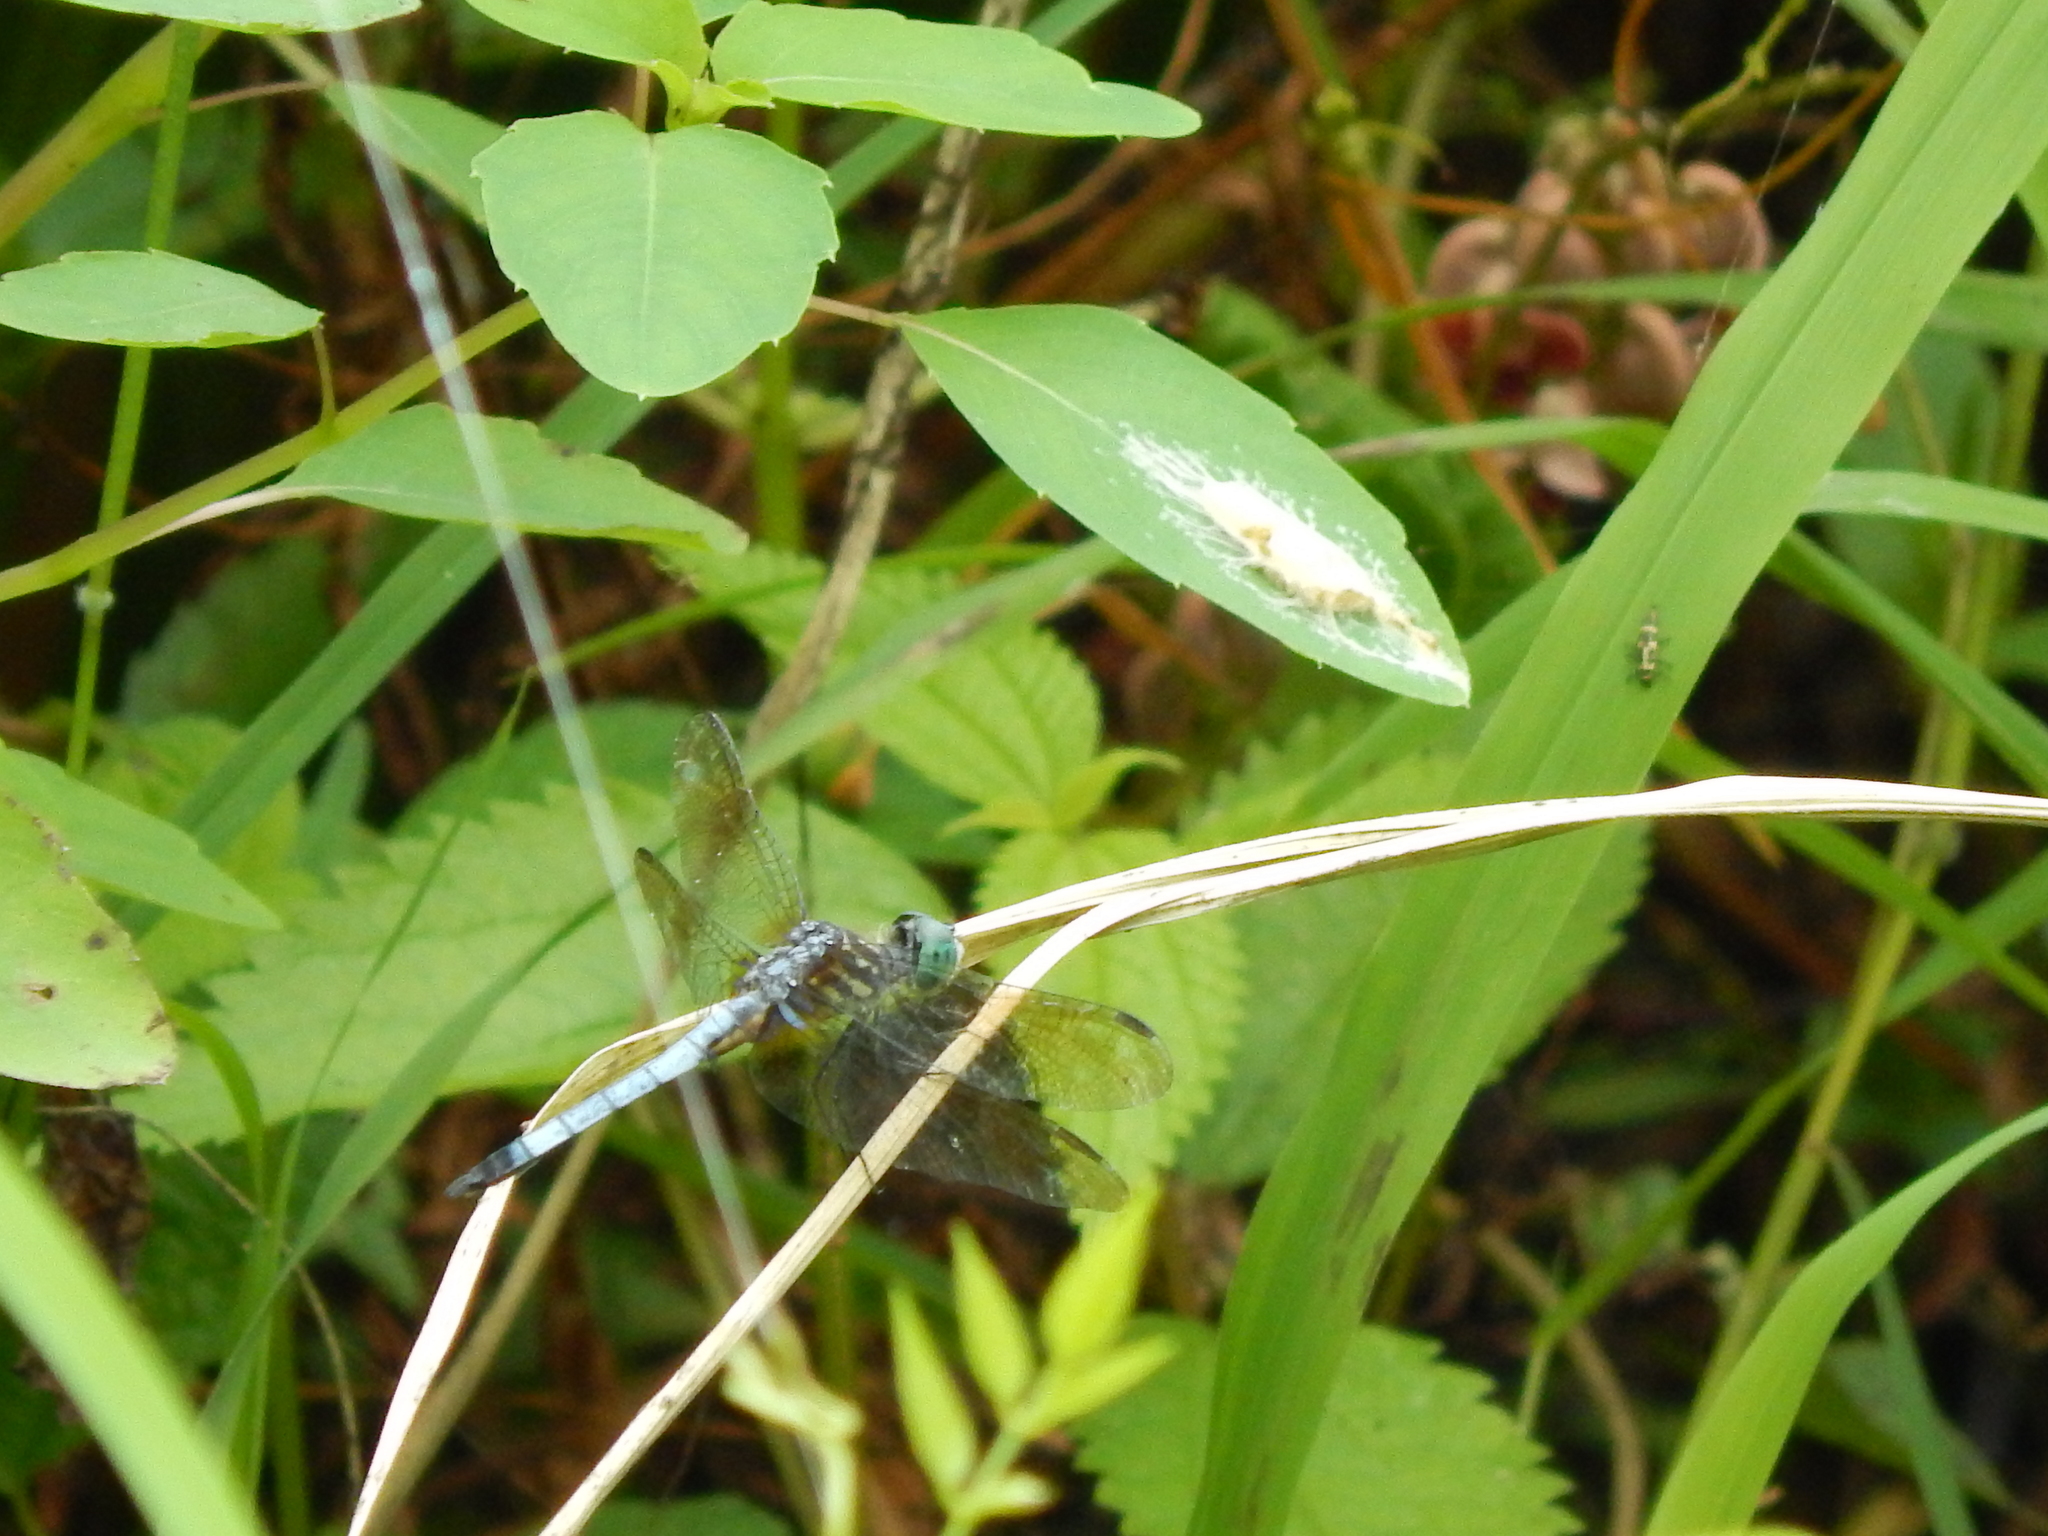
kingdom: Animalia
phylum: Arthropoda
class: Insecta
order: Odonata
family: Libellulidae
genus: Pachydiplax
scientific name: Pachydiplax longipennis
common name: Blue dasher
